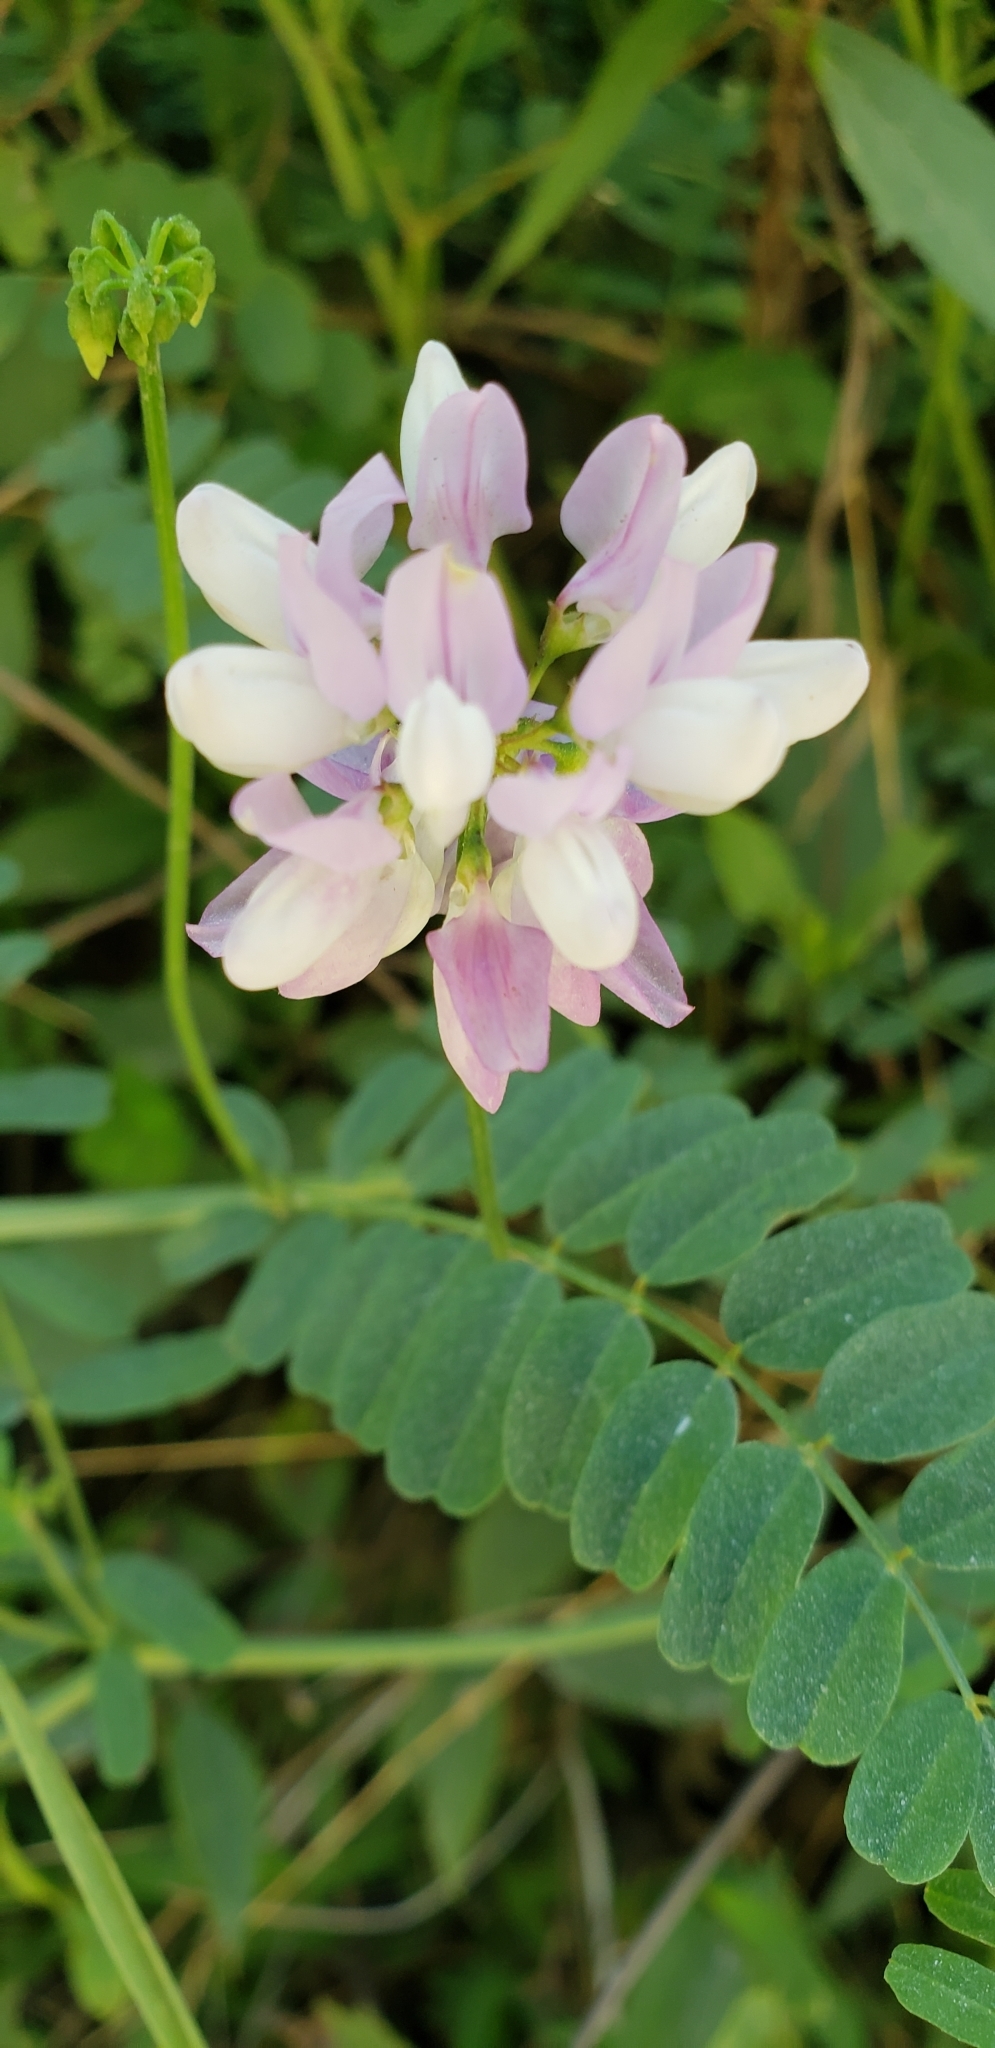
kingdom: Plantae
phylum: Tracheophyta
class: Magnoliopsida
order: Fabales
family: Fabaceae
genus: Coronilla
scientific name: Coronilla varia
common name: Crownvetch
